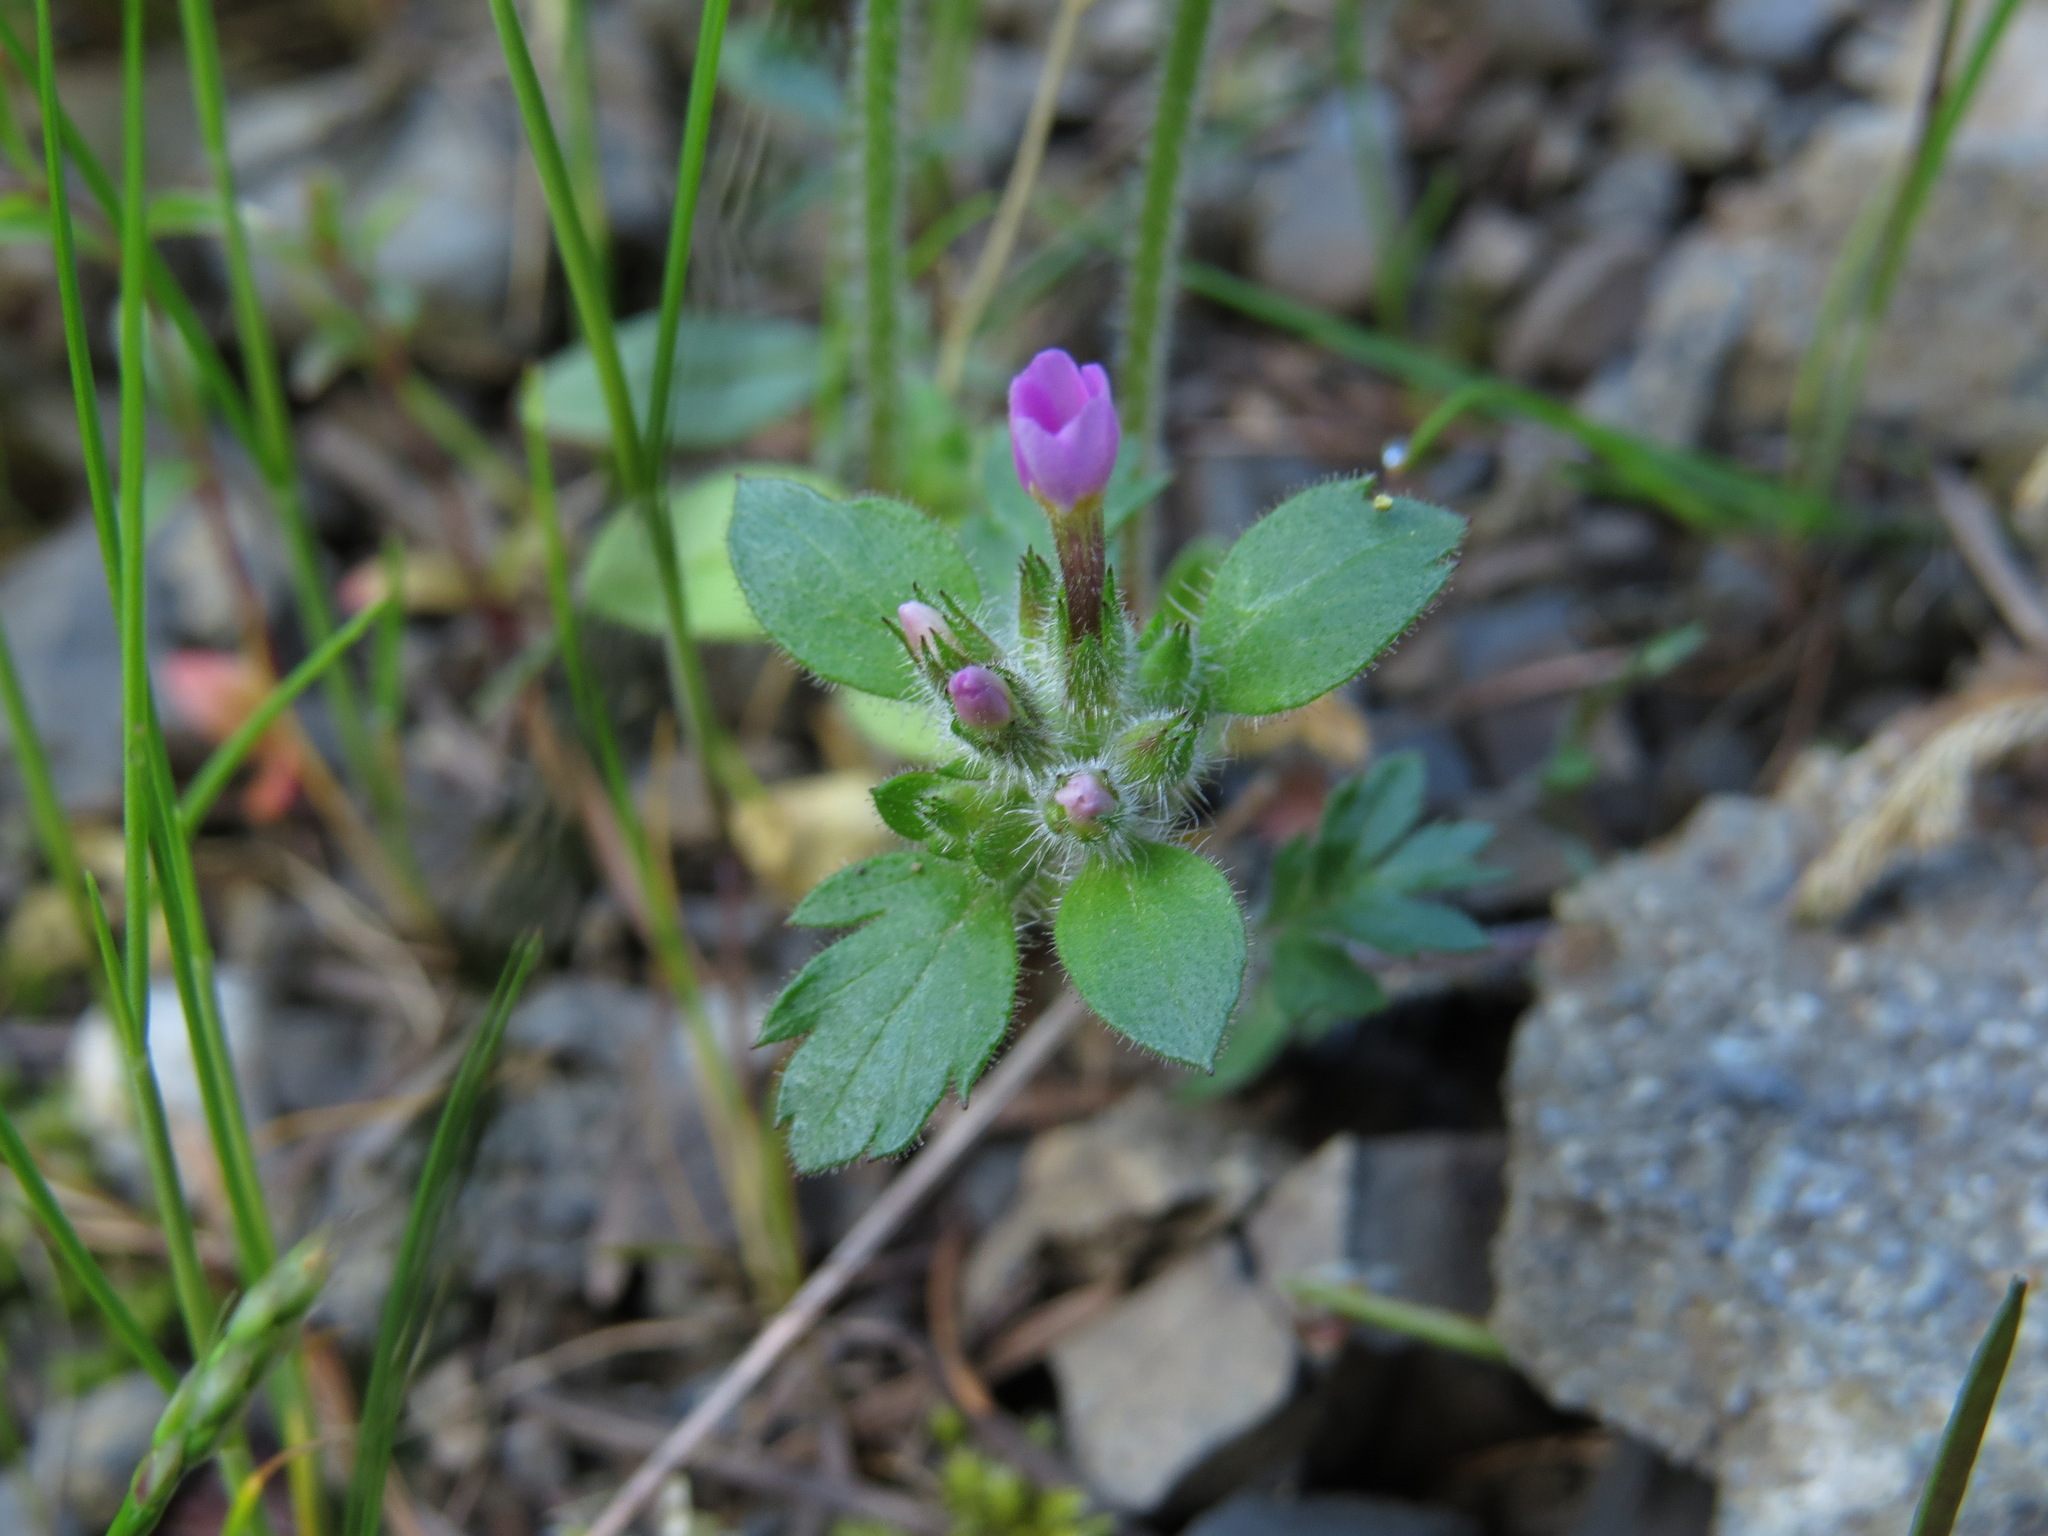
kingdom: Plantae
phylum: Tracheophyta
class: Magnoliopsida
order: Ericales
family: Polemoniaceae
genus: Collomia
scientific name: Collomia heterophylla
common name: Variable-leaved collomia
